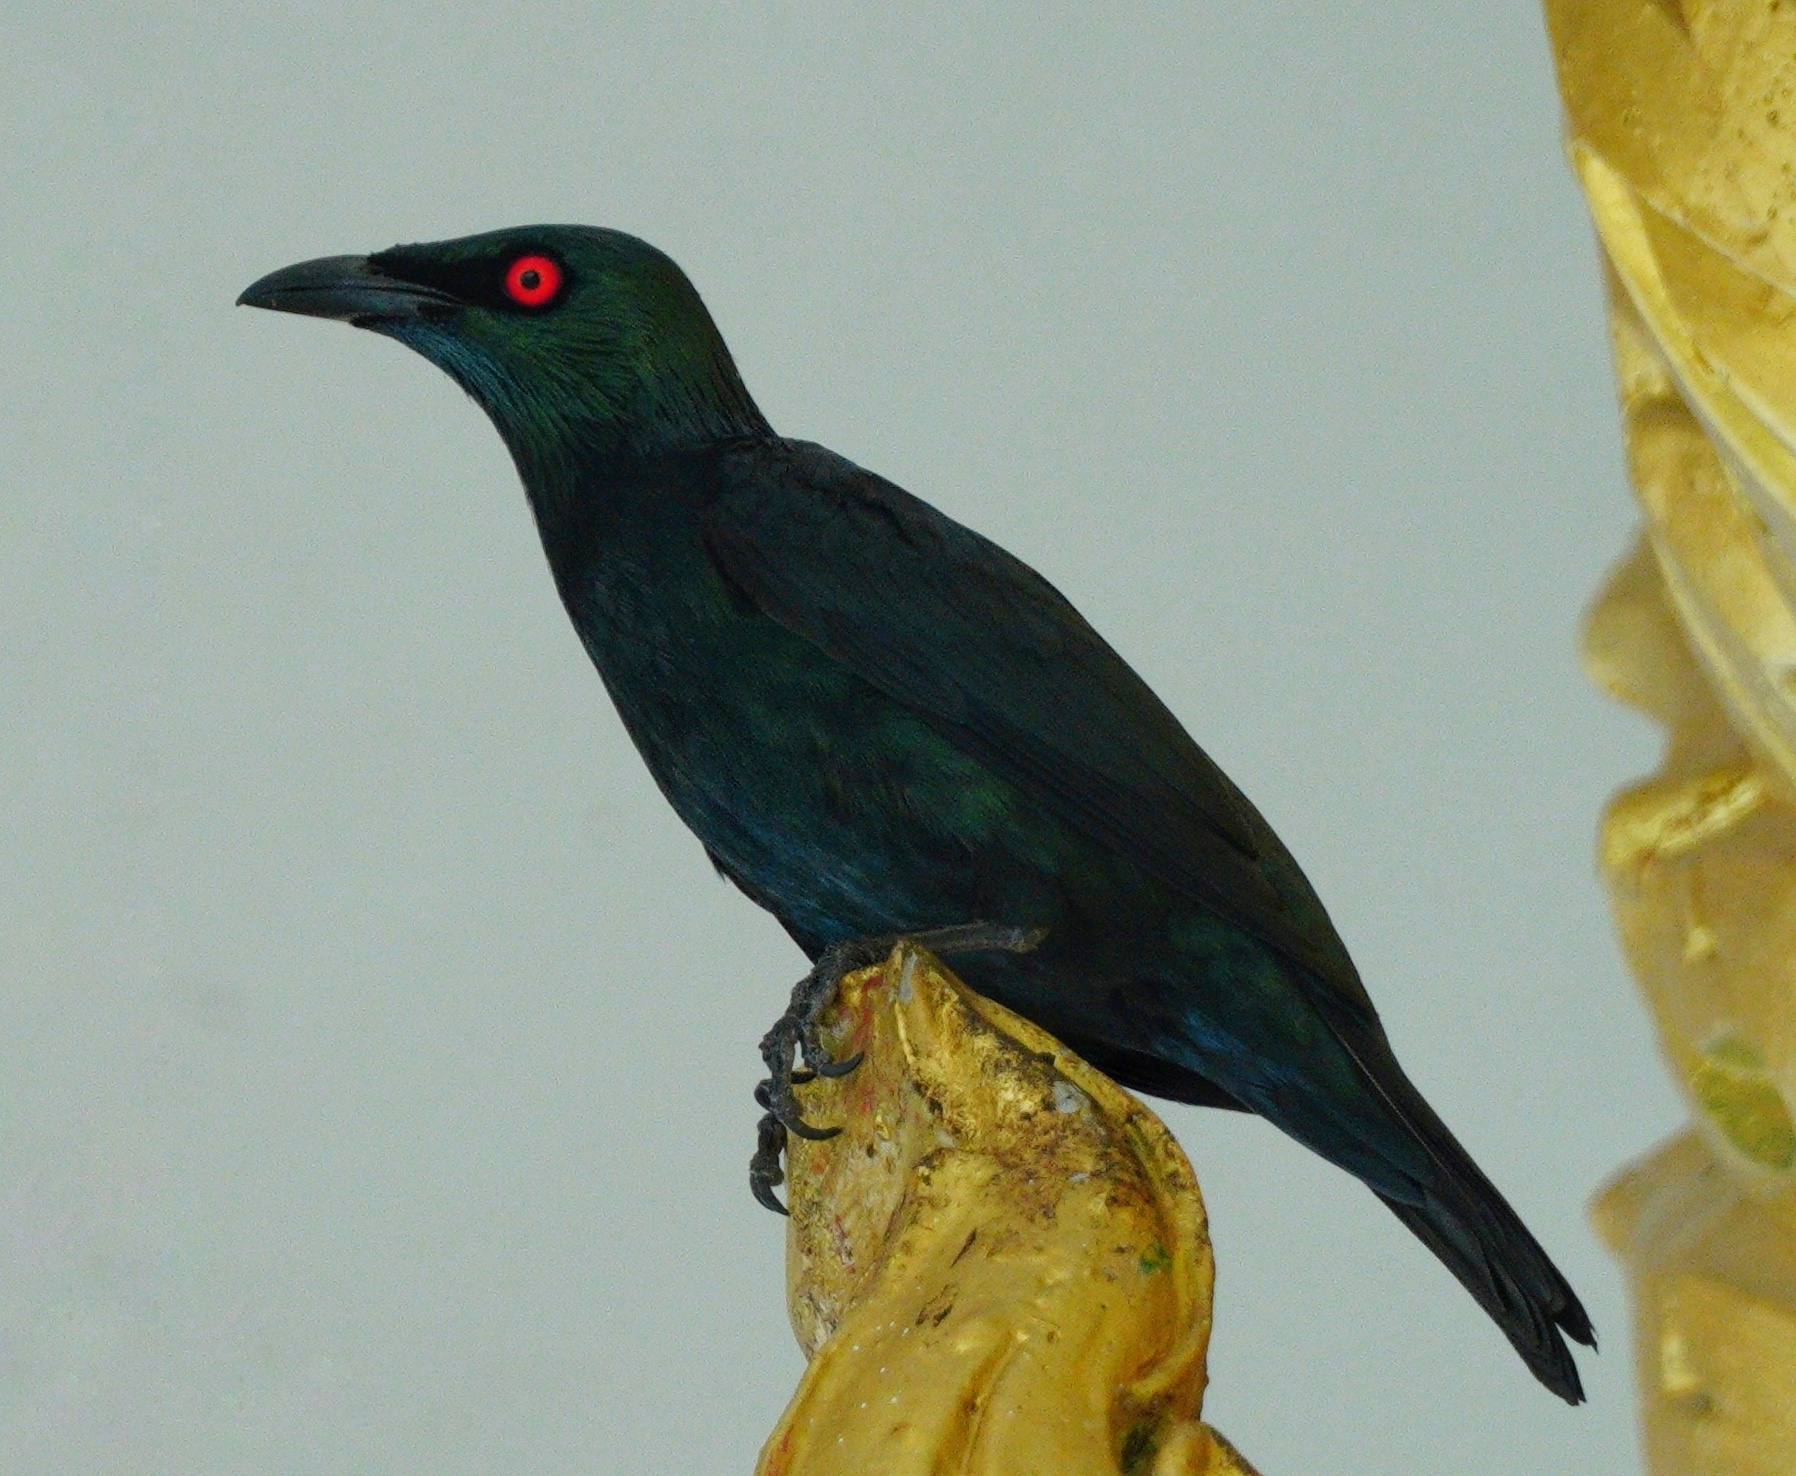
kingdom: Animalia
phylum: Chordata
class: Aves
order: Passeriformes
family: Sturnidae
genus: Aplonis
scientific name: Aplonis panayensis
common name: Asian glossy starling
